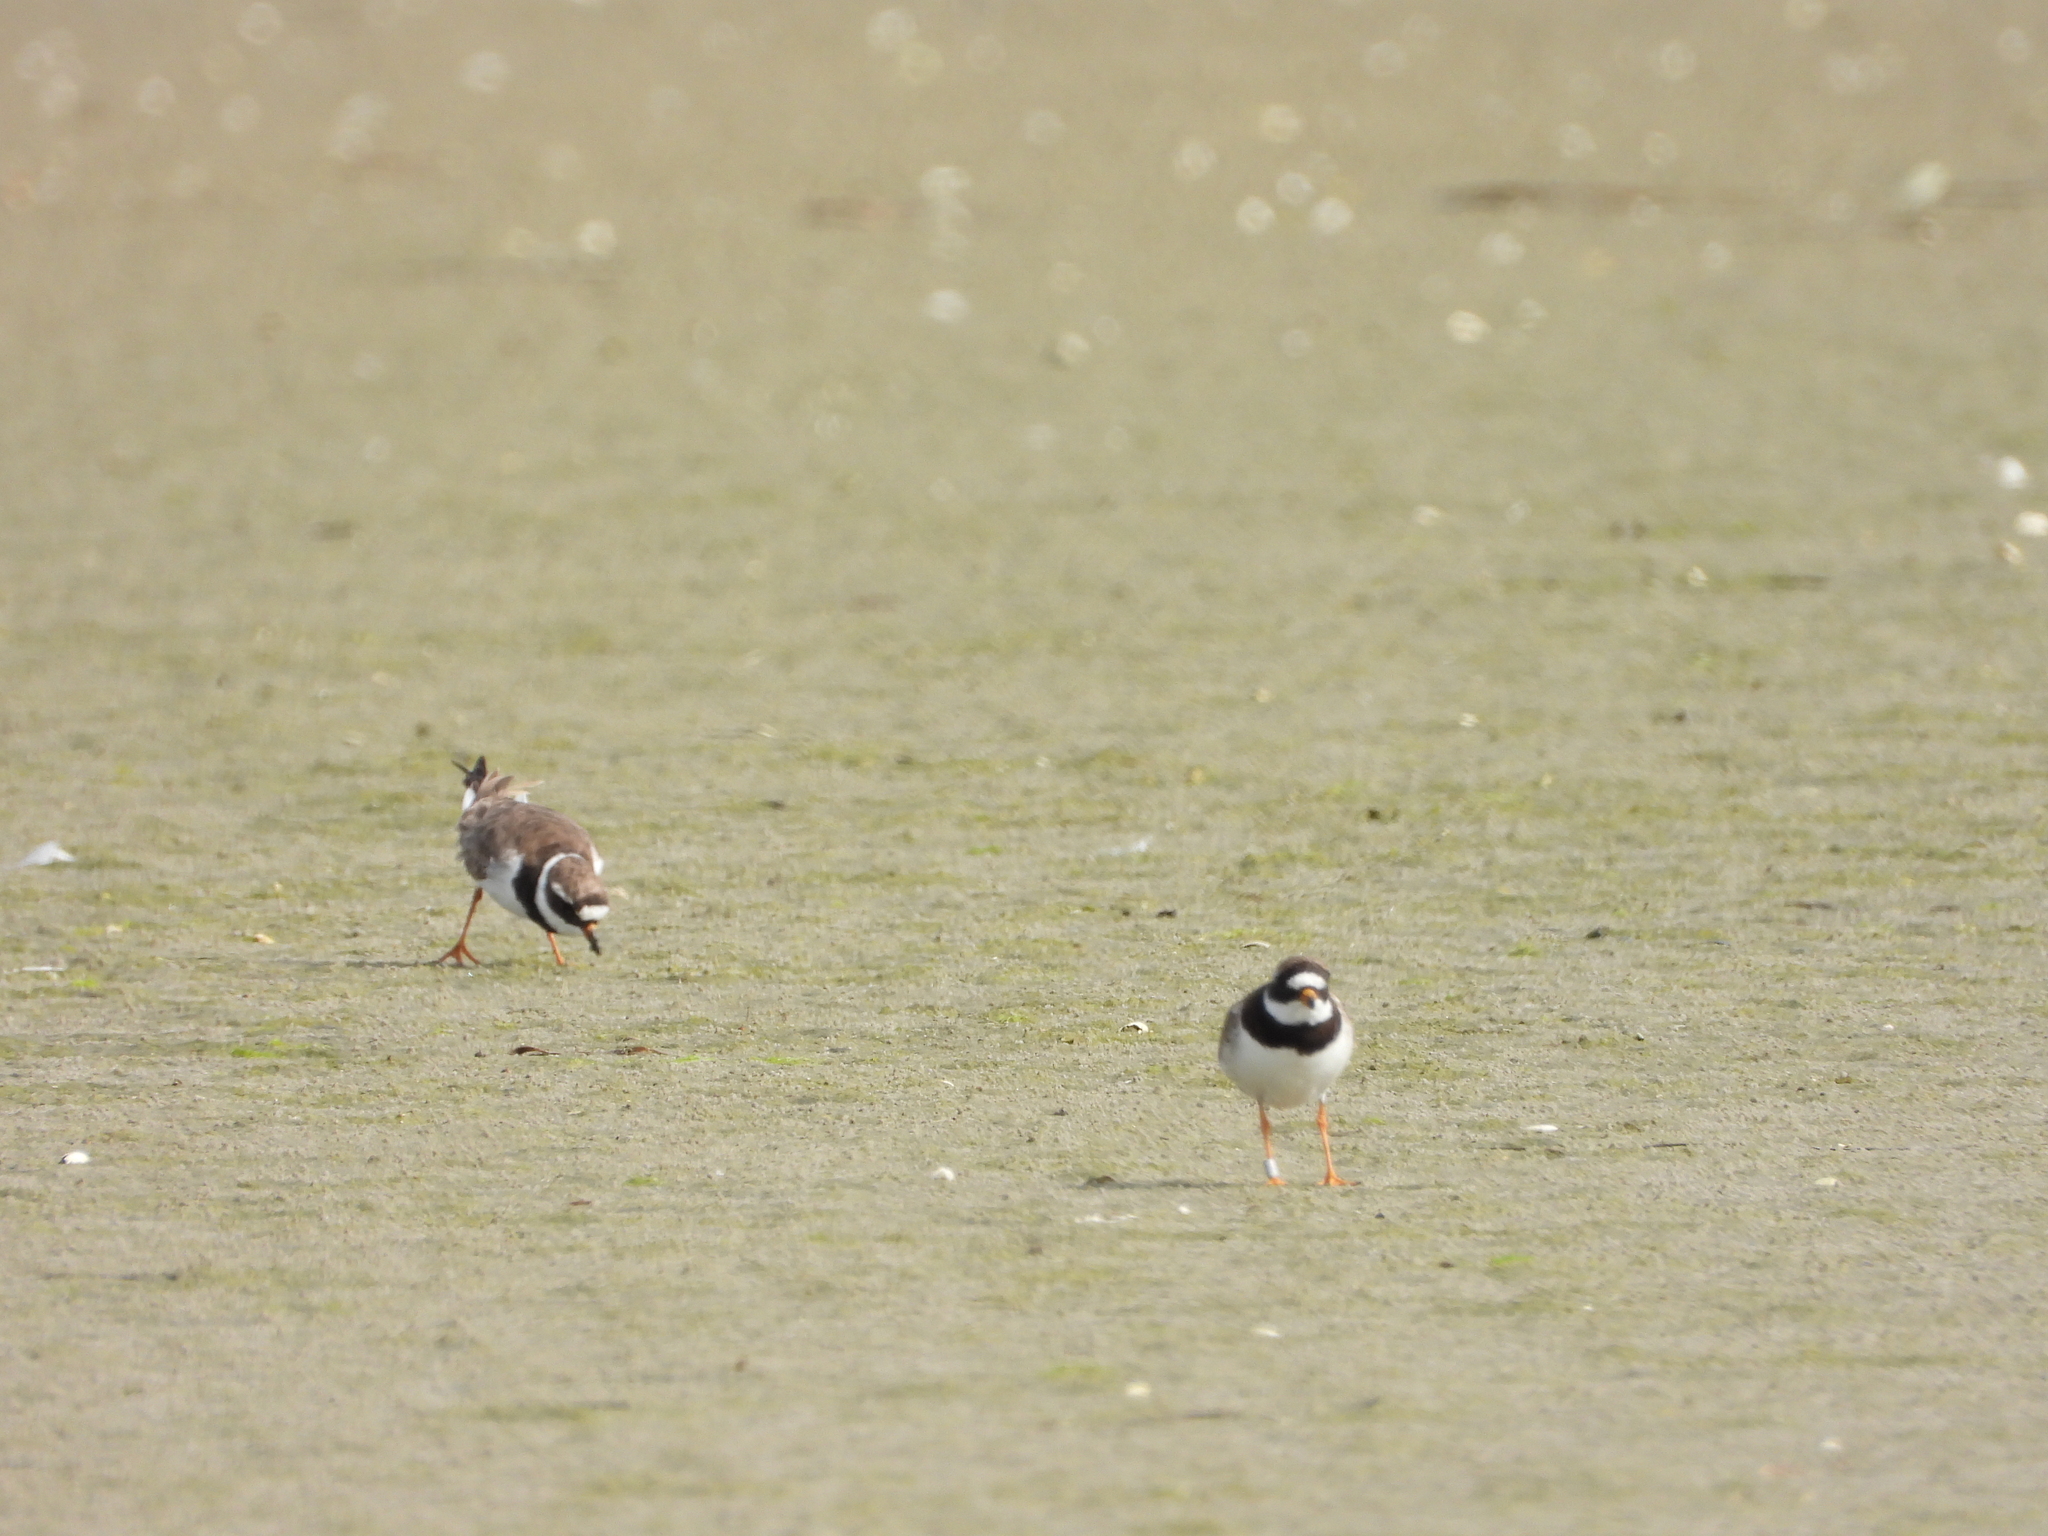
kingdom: Animalia
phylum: Chordata
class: Aves
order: Charadriiformes
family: Charadriidae
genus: Charadrius
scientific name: Charadrius hiaticula
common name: Common ringed plover
